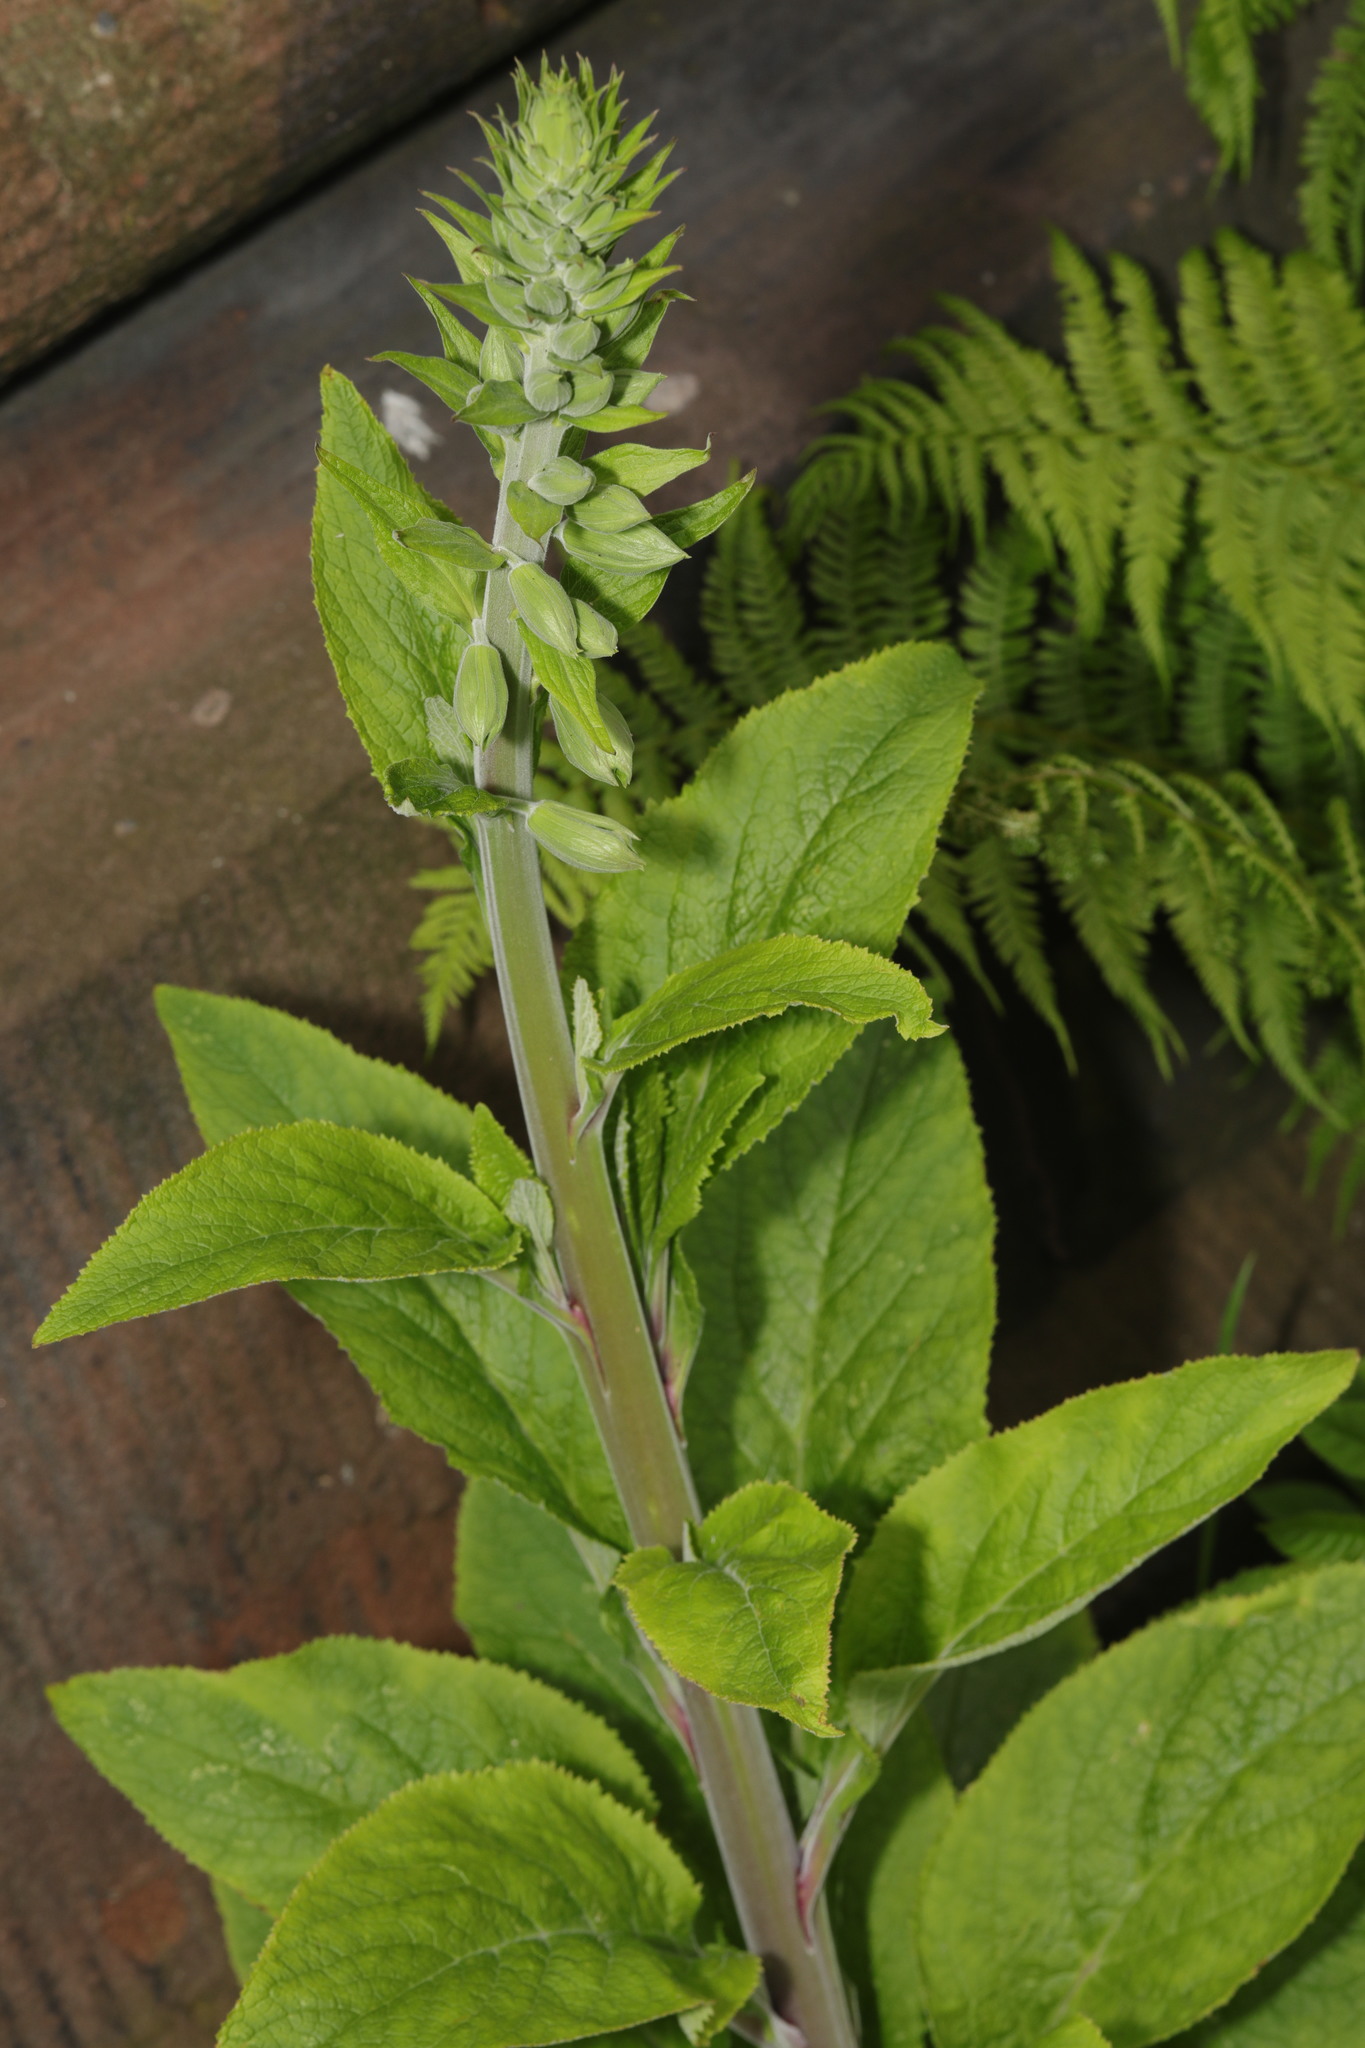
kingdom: Plantae
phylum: Tracheophyta
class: Magnoliopsida
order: Lamiales
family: Plantaginaceae
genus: Digitalis
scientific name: Digitalis purpurea
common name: Foxglove
